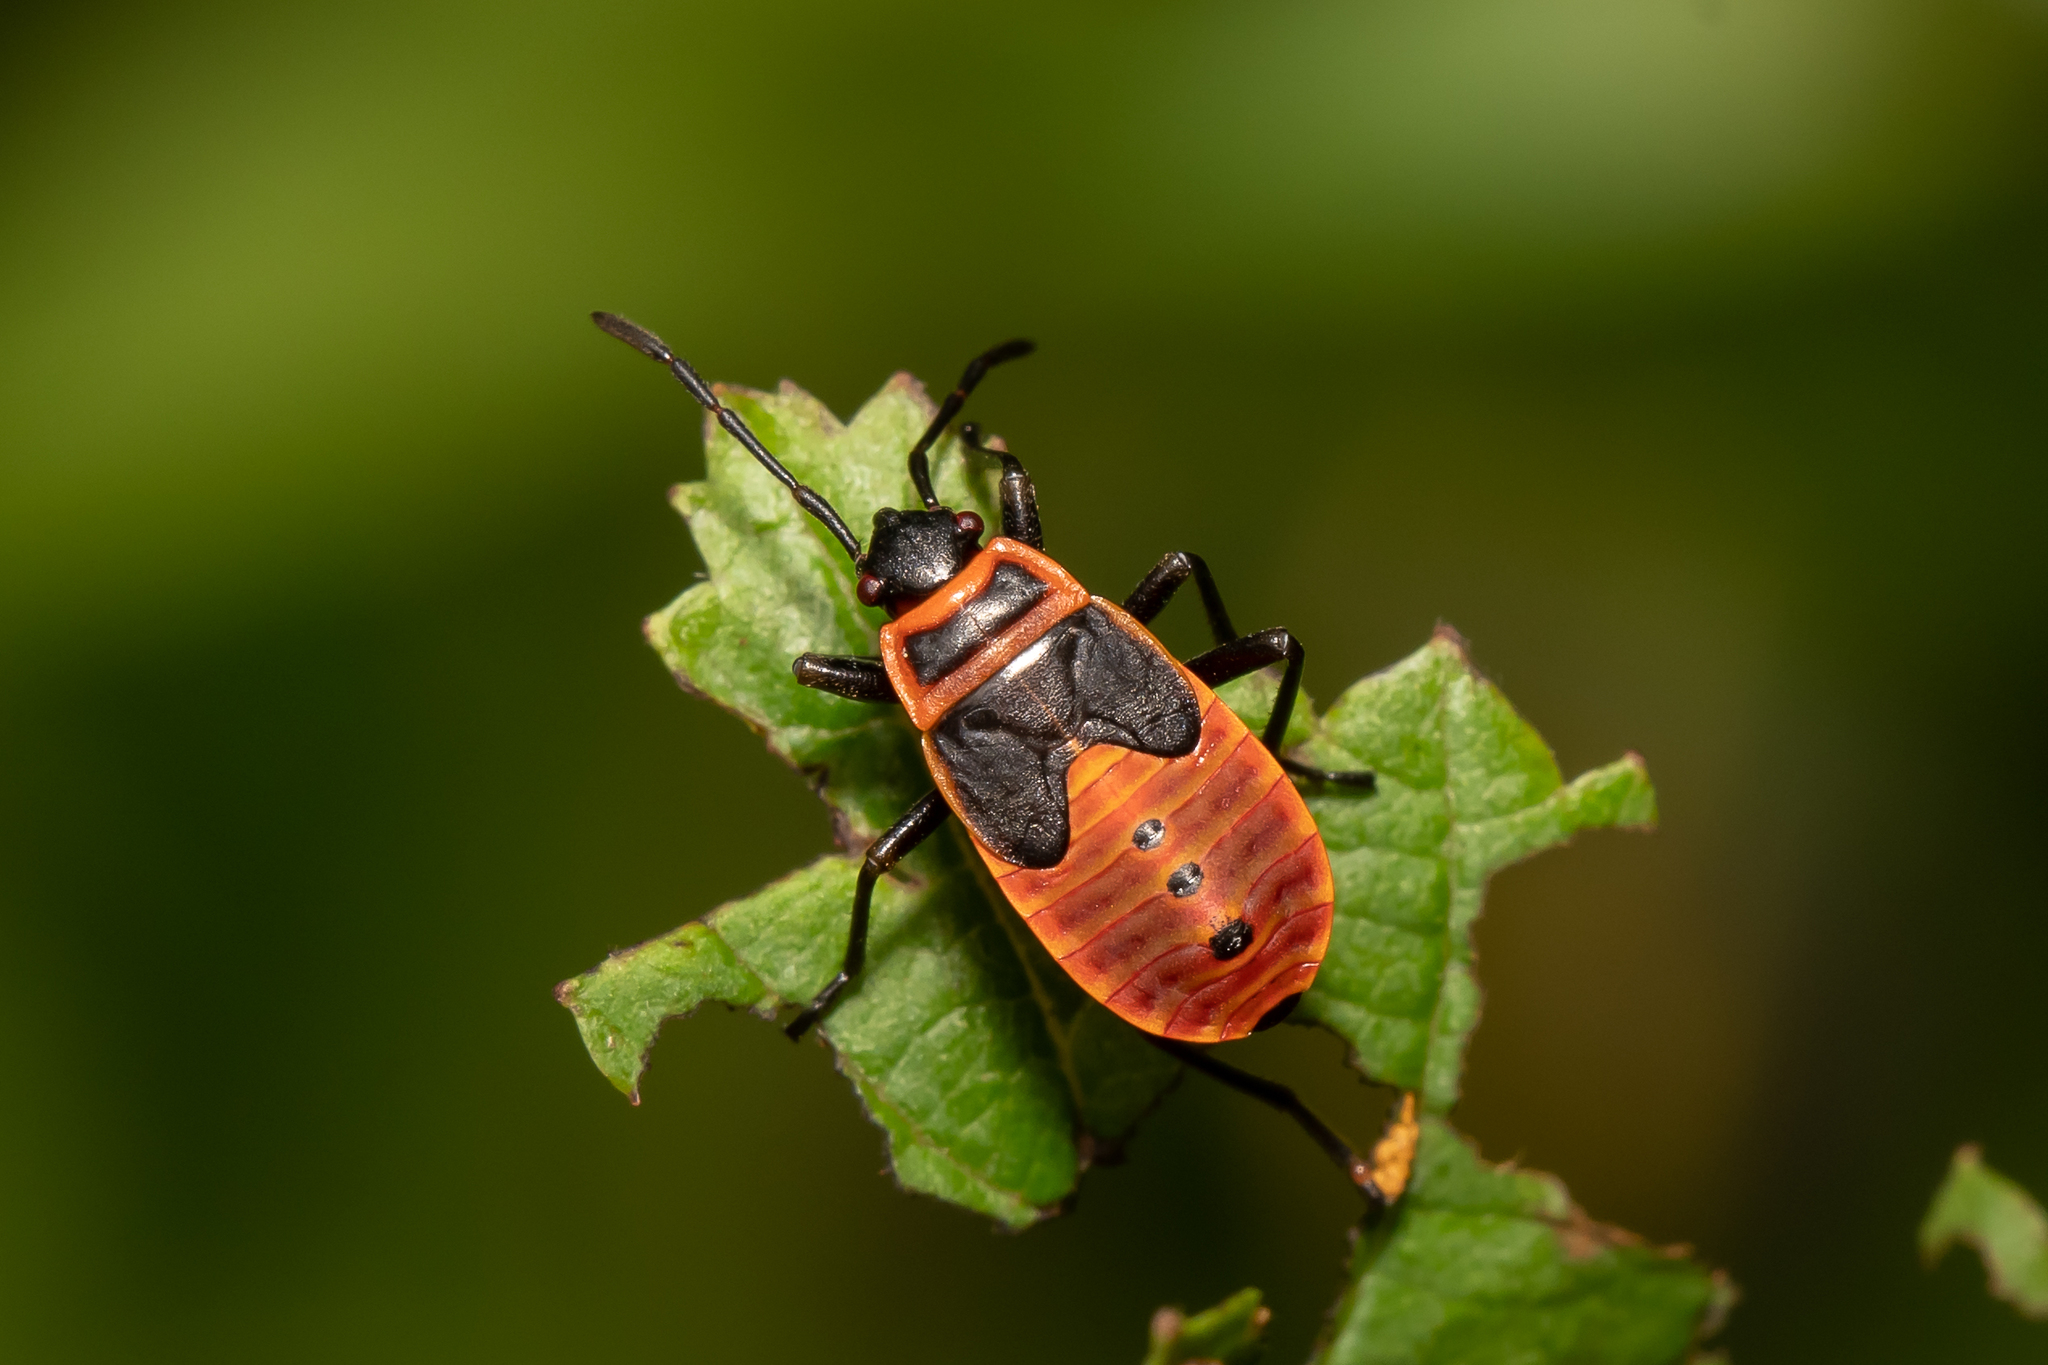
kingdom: Animalia
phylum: Arthropoda
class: Insecta
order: Hemiptera
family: Pyrrhocoridae
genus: Pyrrhocoris
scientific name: Pyrrhocoris apterus
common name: Firebug
